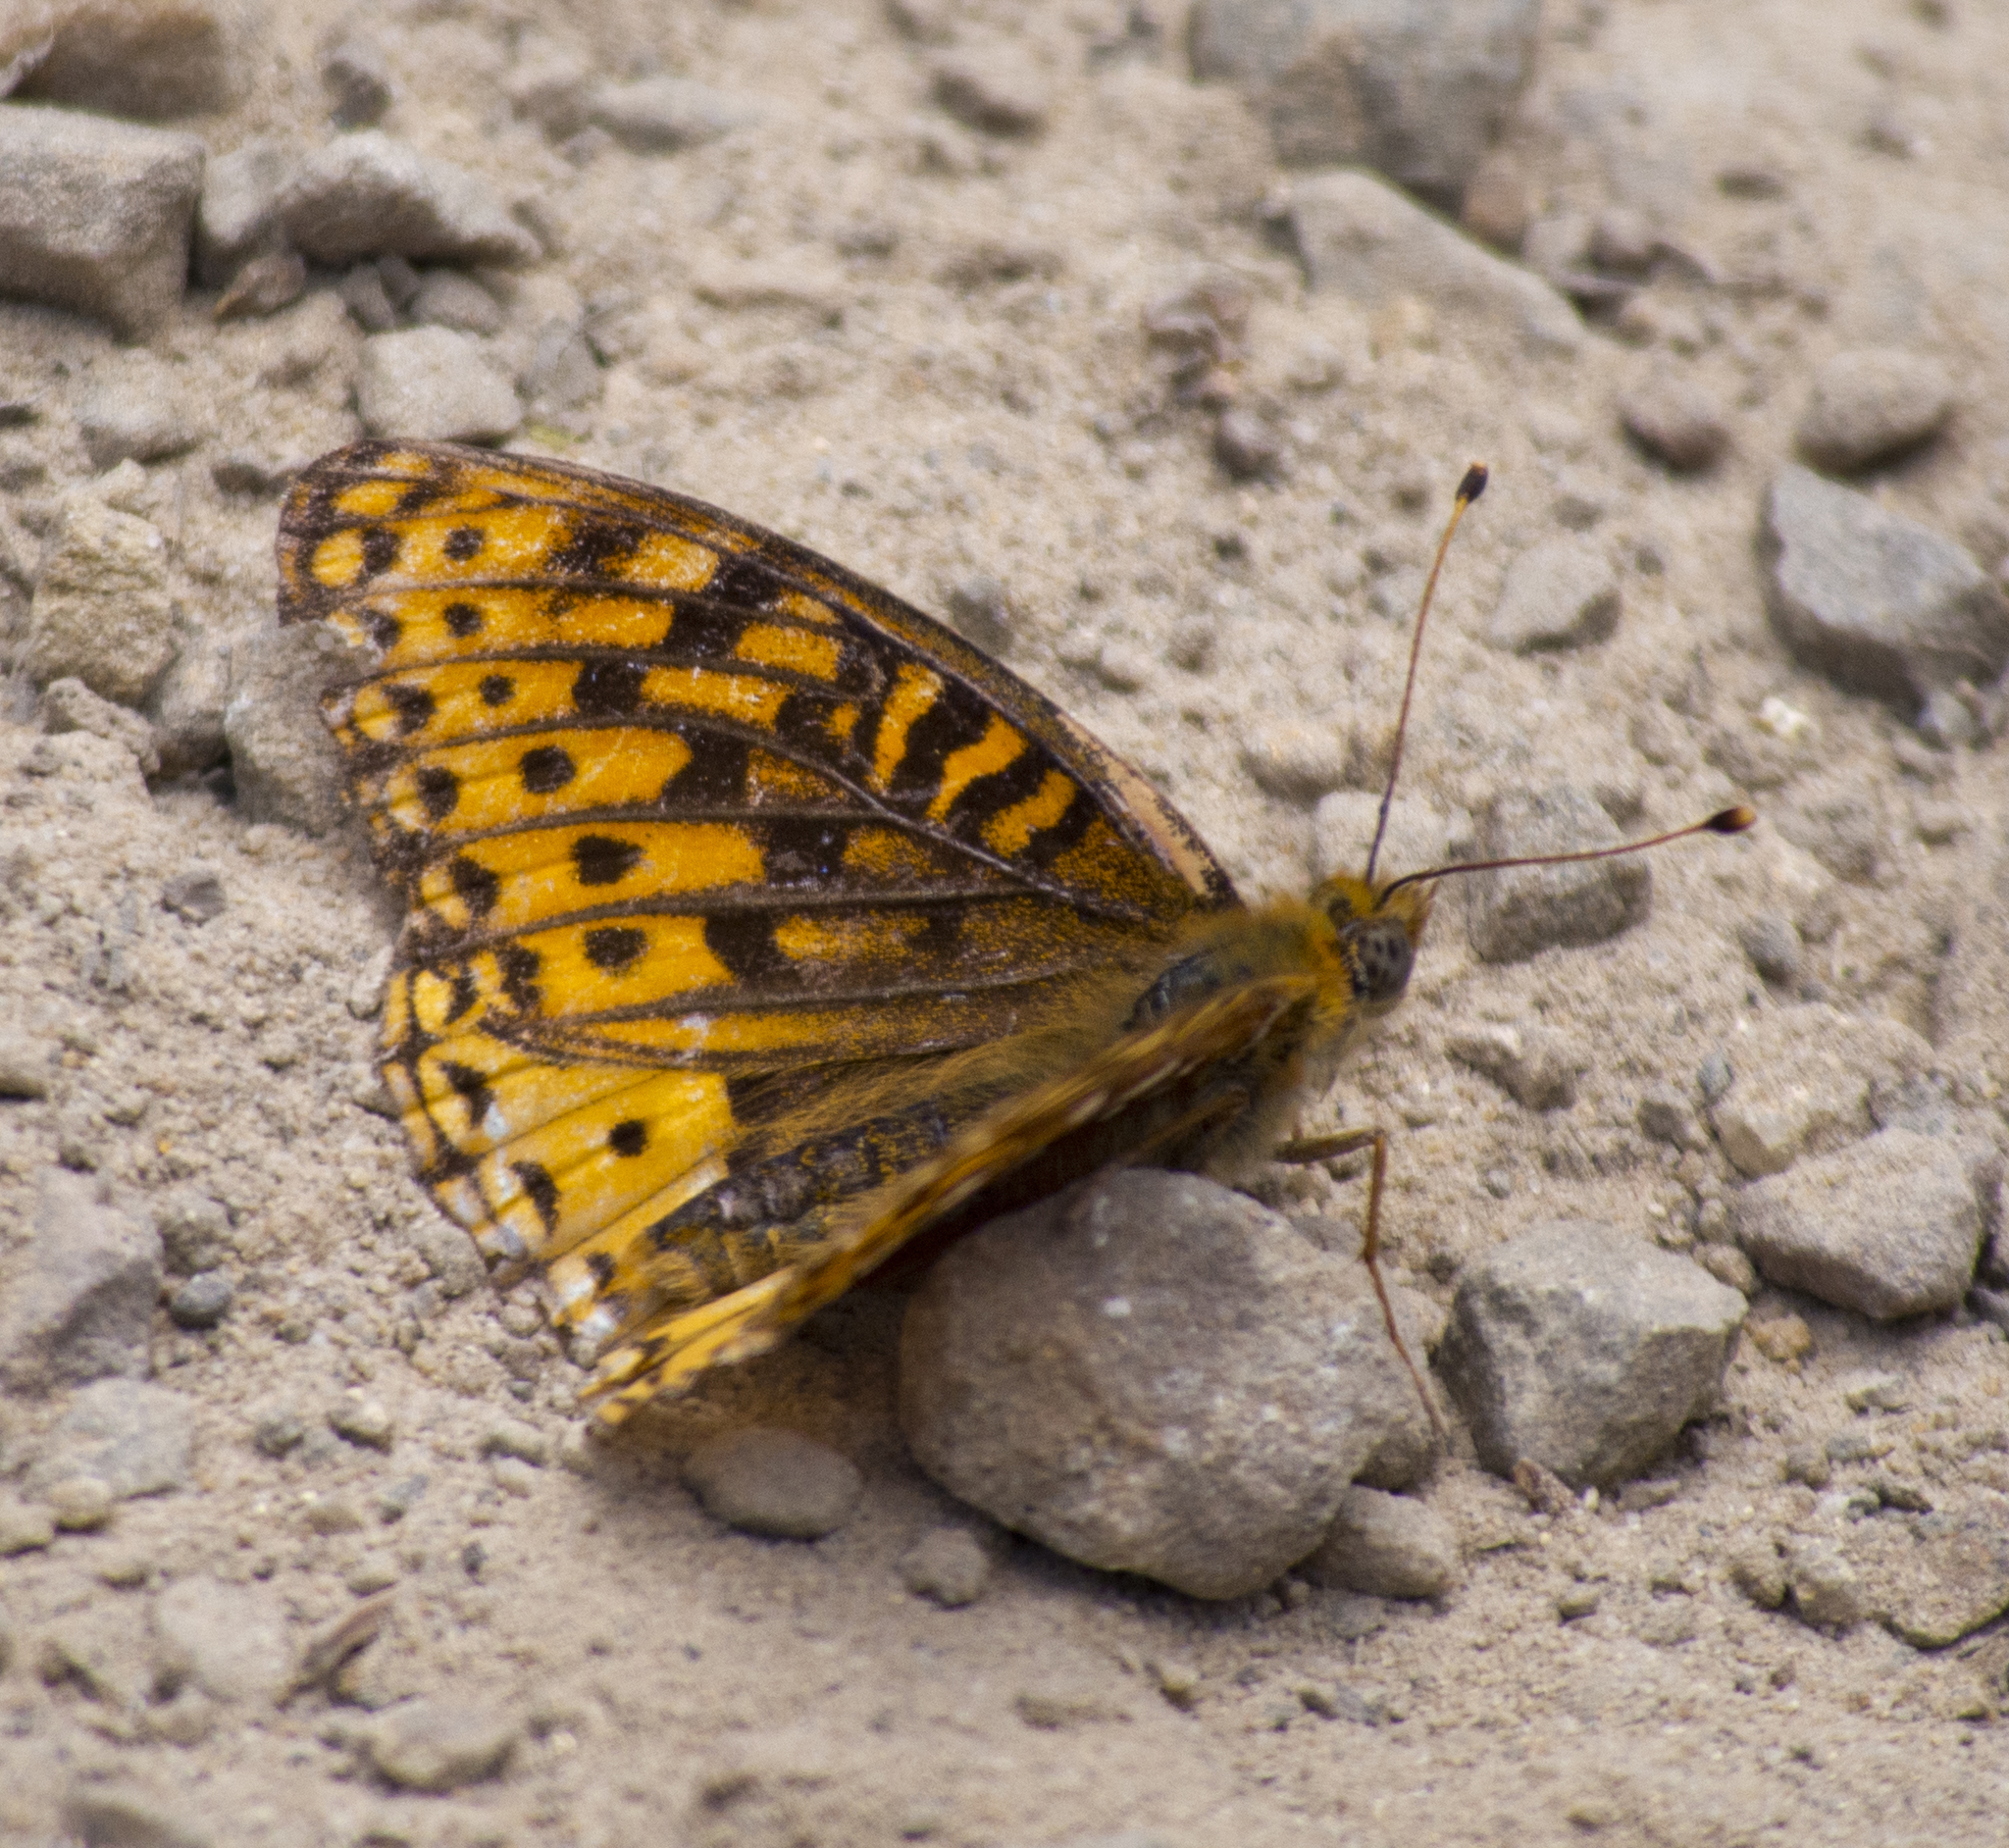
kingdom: Animalia
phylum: Arthropoda
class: Insecta
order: Lepidoptera
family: Nymphalidae
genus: Speyeria
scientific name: Speyeria atlantis
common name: Atlantis fritillary
